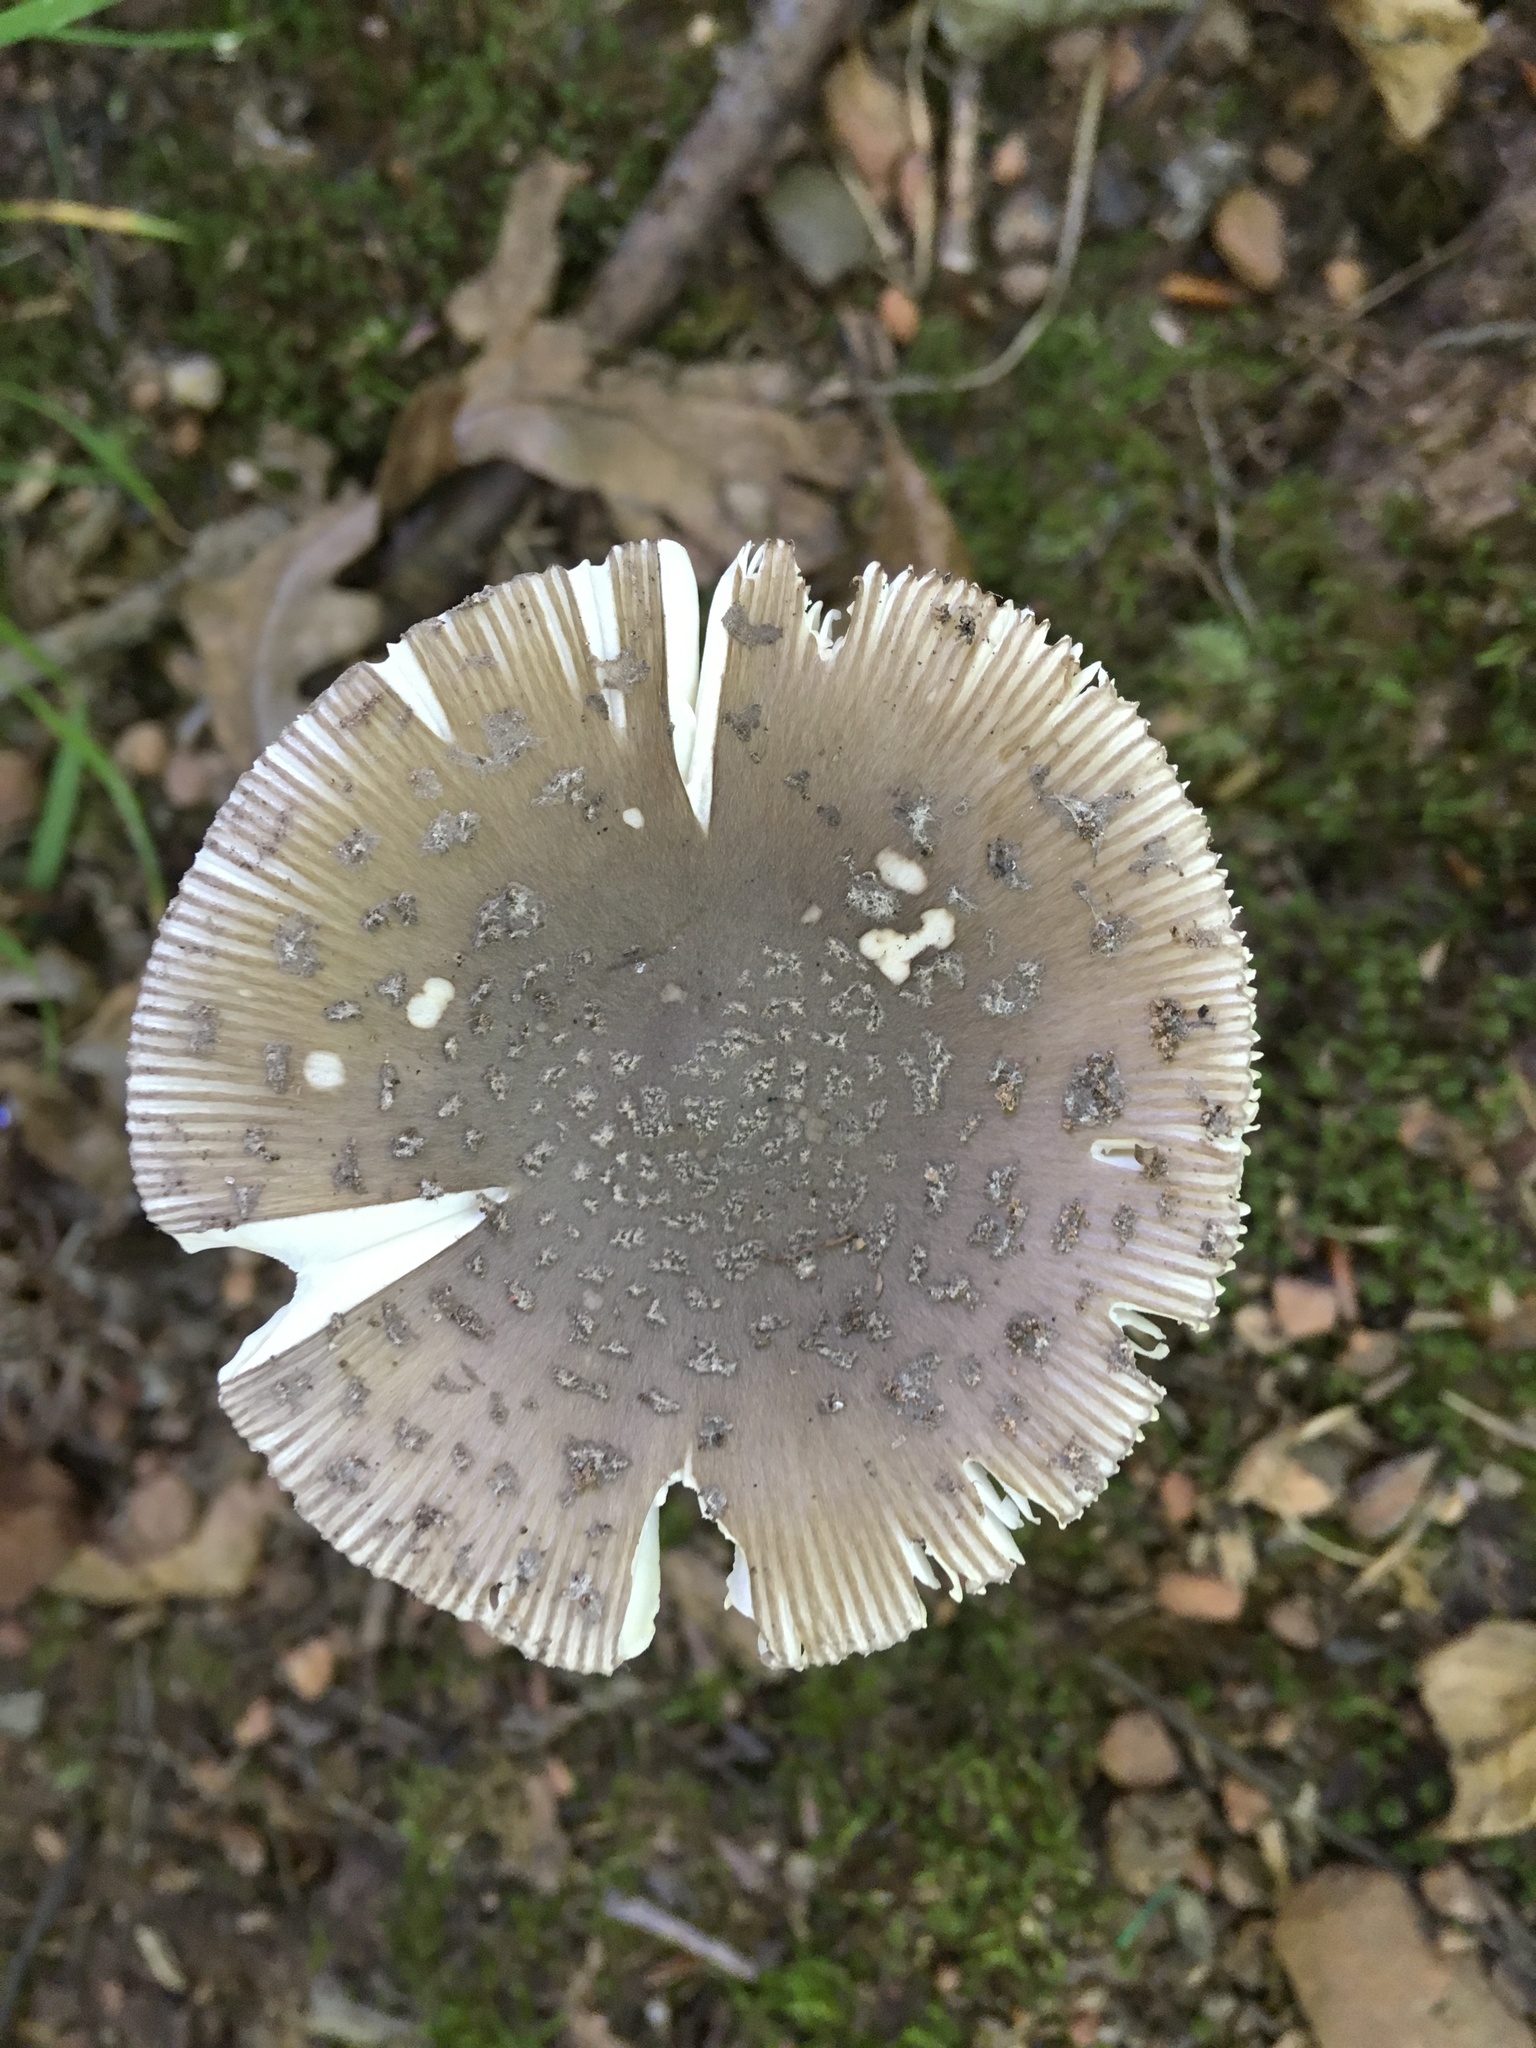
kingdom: Fungi
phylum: Basidiomycota
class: Agaricomycetes
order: Agaricales
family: Amanitaceae
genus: Amanita
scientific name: Amanita rhacopus
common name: Shaggy legged ringless amanita
